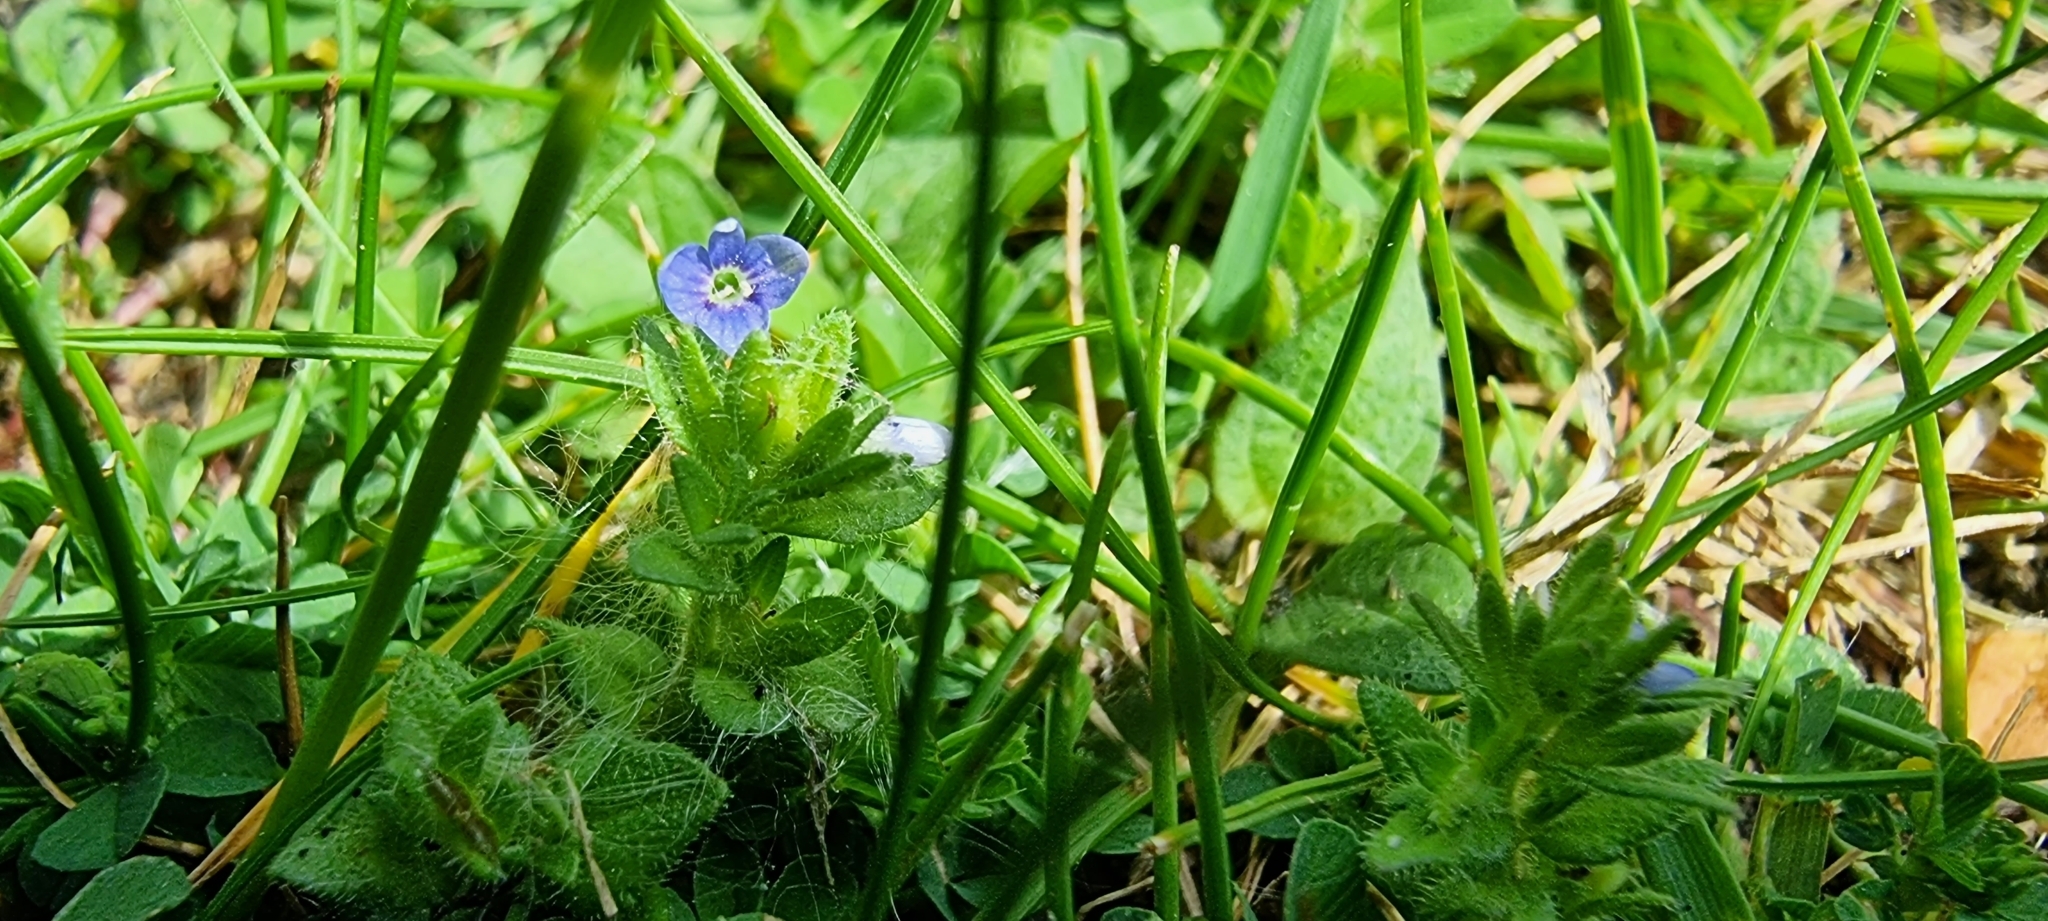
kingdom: Plantae
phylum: Tracheophyta
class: Magnoliopsida
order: Lamiales
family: Plantaginaceae
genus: Veronica
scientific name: Veronica arvensis
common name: Corn speedwell
